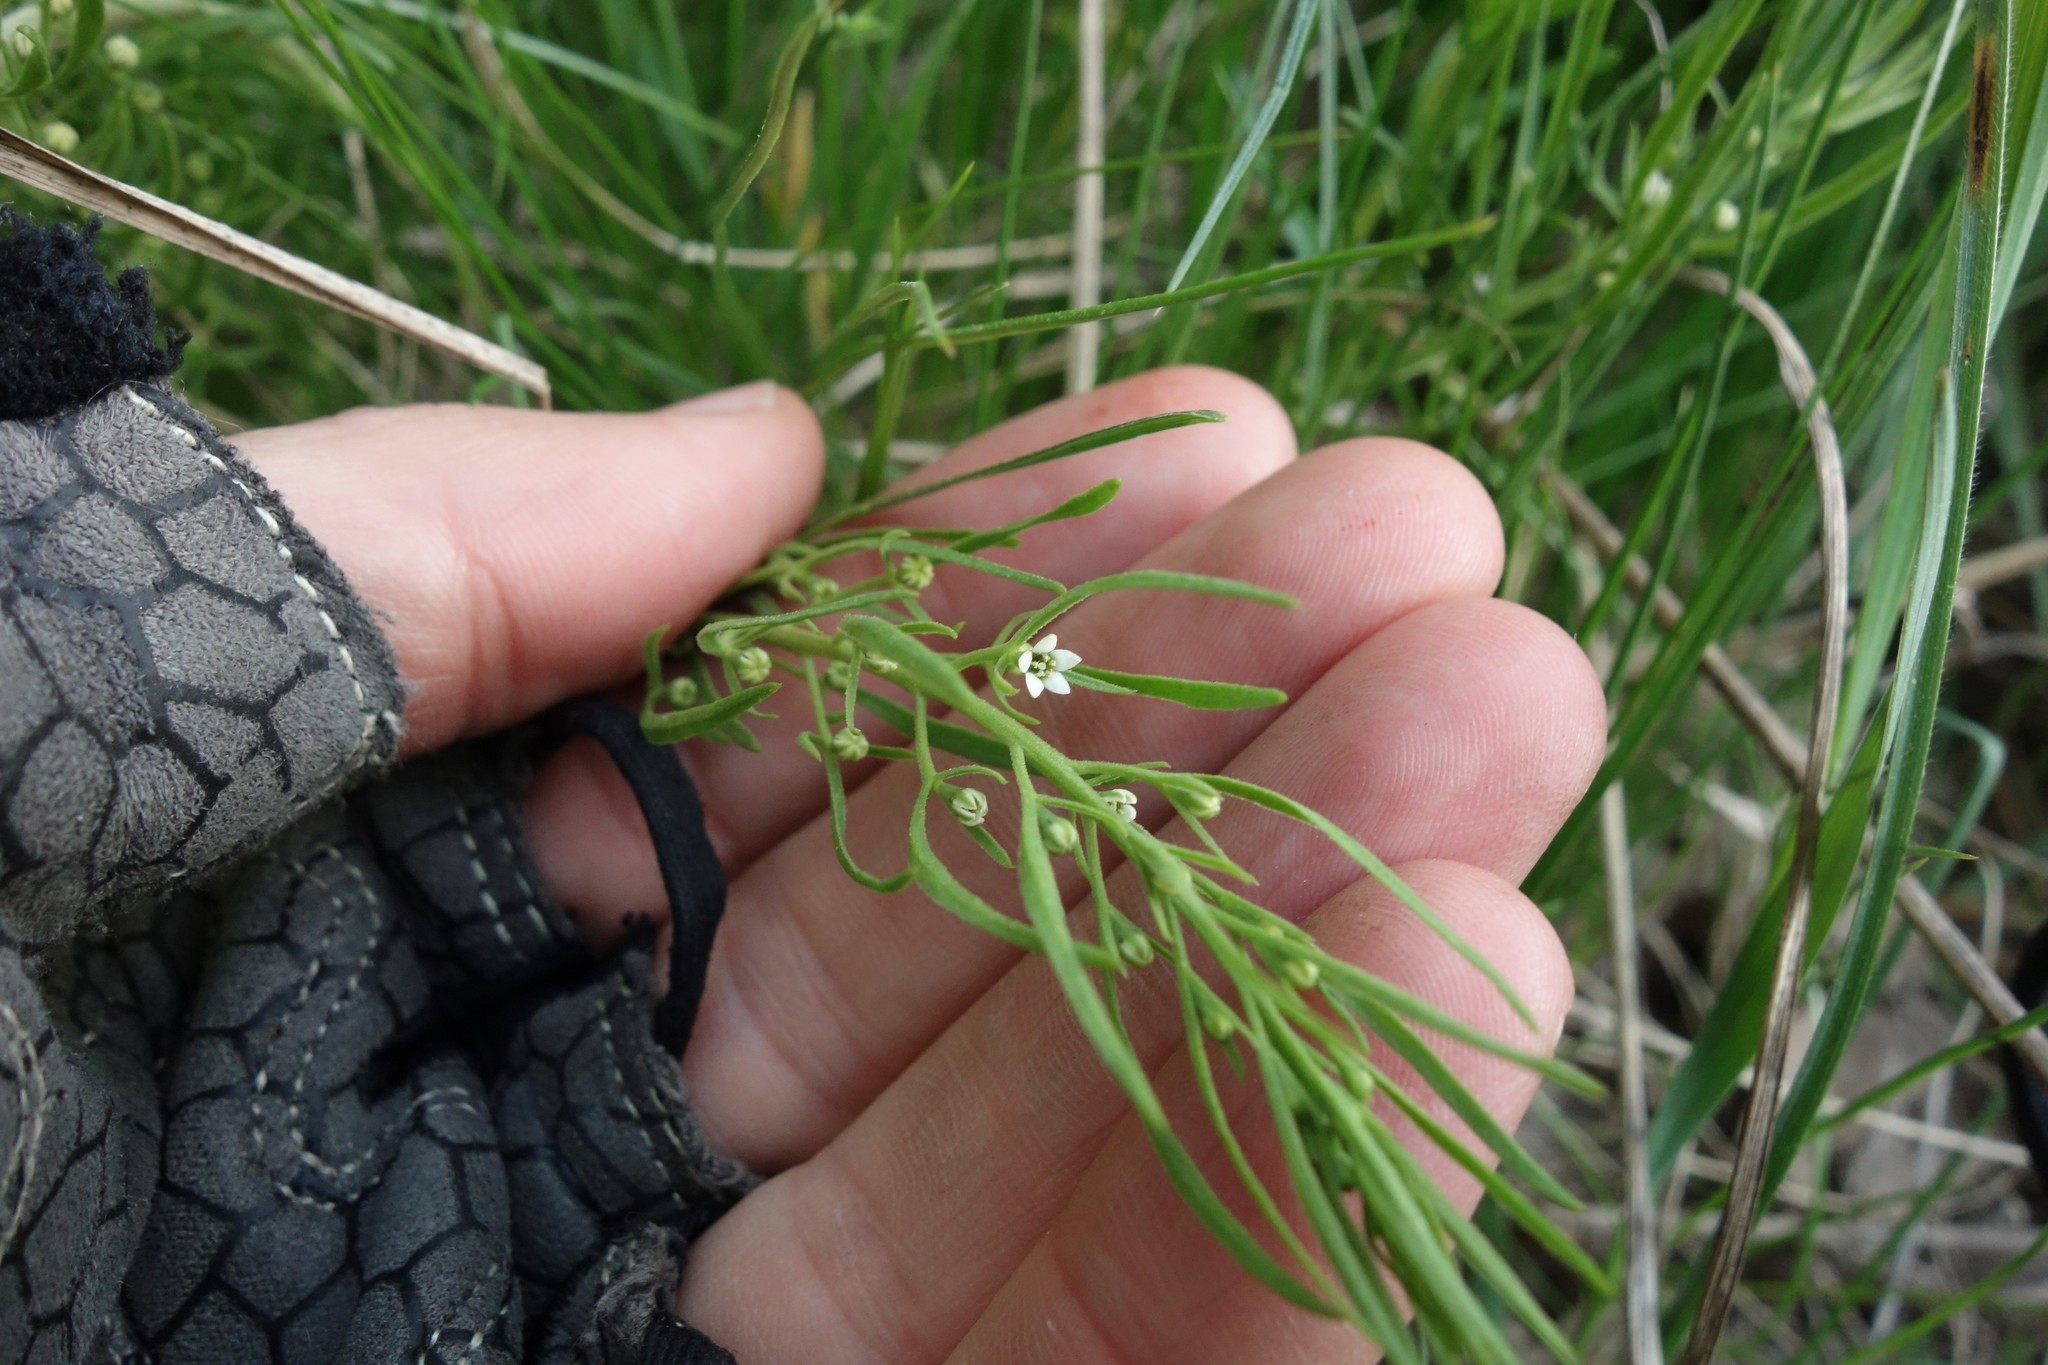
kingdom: Plantae
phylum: Tracheophyta
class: Magnoliopsida
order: Santalales
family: Thesiaceae
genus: Thesium
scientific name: Thesium ramosum
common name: Field thesium
